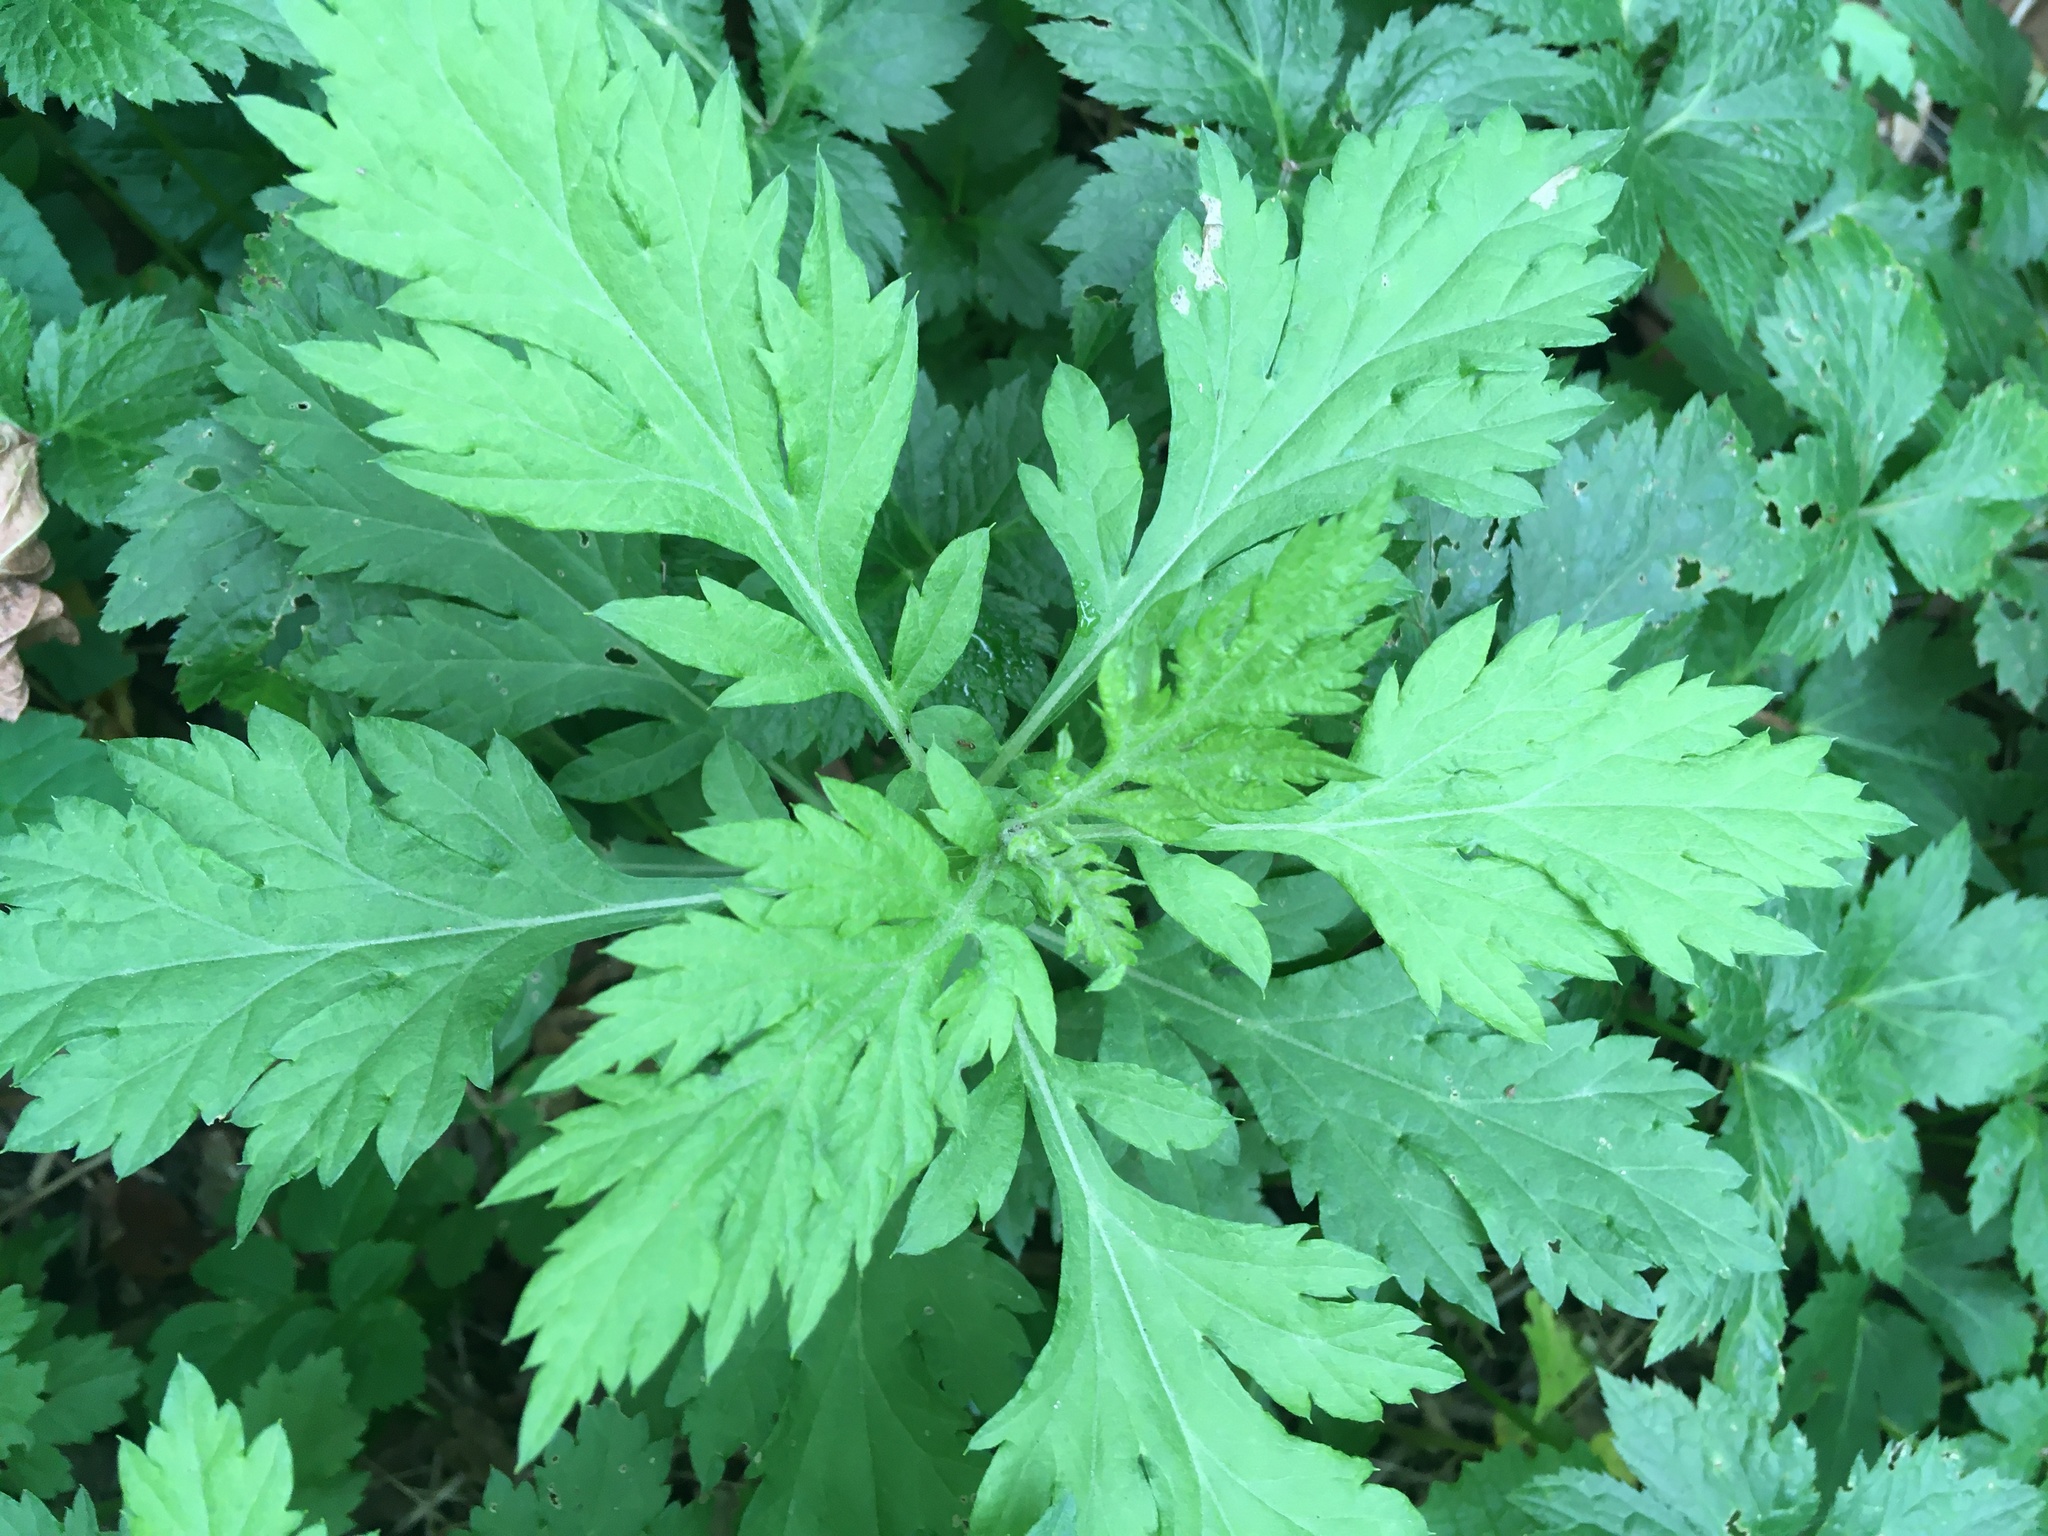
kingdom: Plantae
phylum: Tracheophyta
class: Magnoliopsida
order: Asterales
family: Asteraceae
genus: Artemisia
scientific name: Artemisia vulgaris
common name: Mugwort
